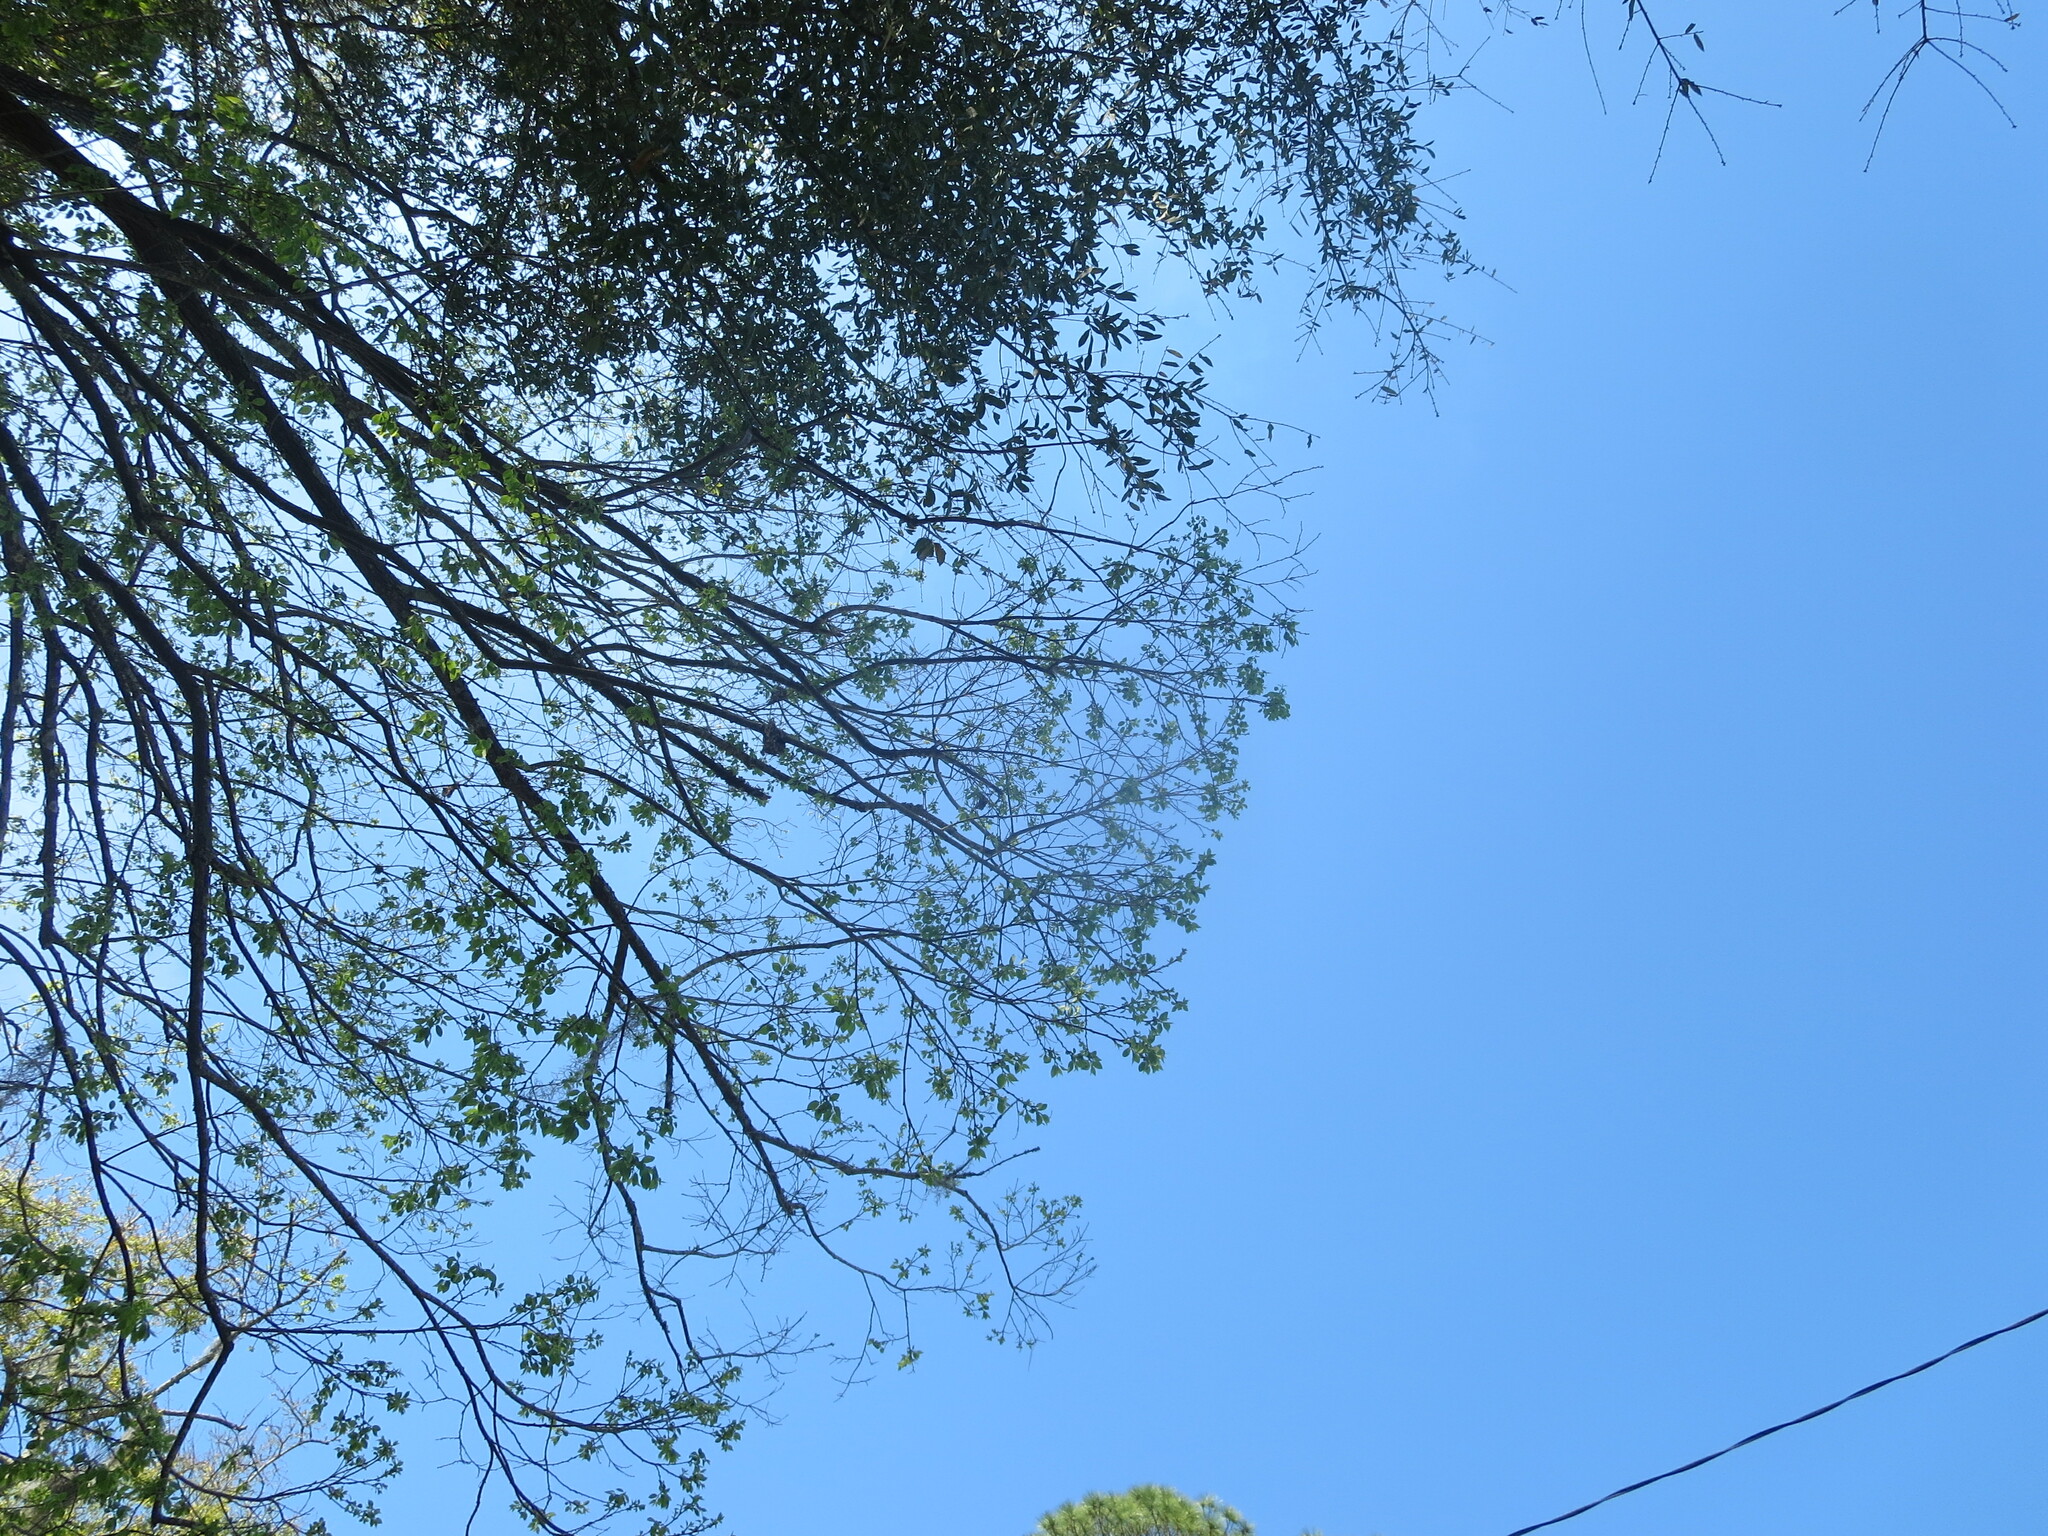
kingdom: Plantae
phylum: Tracheophyta
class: Magnoliopsida
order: Ericales
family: Ebenaceae
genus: Diospyros
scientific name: Diospyros virginiana
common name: Persimmon
